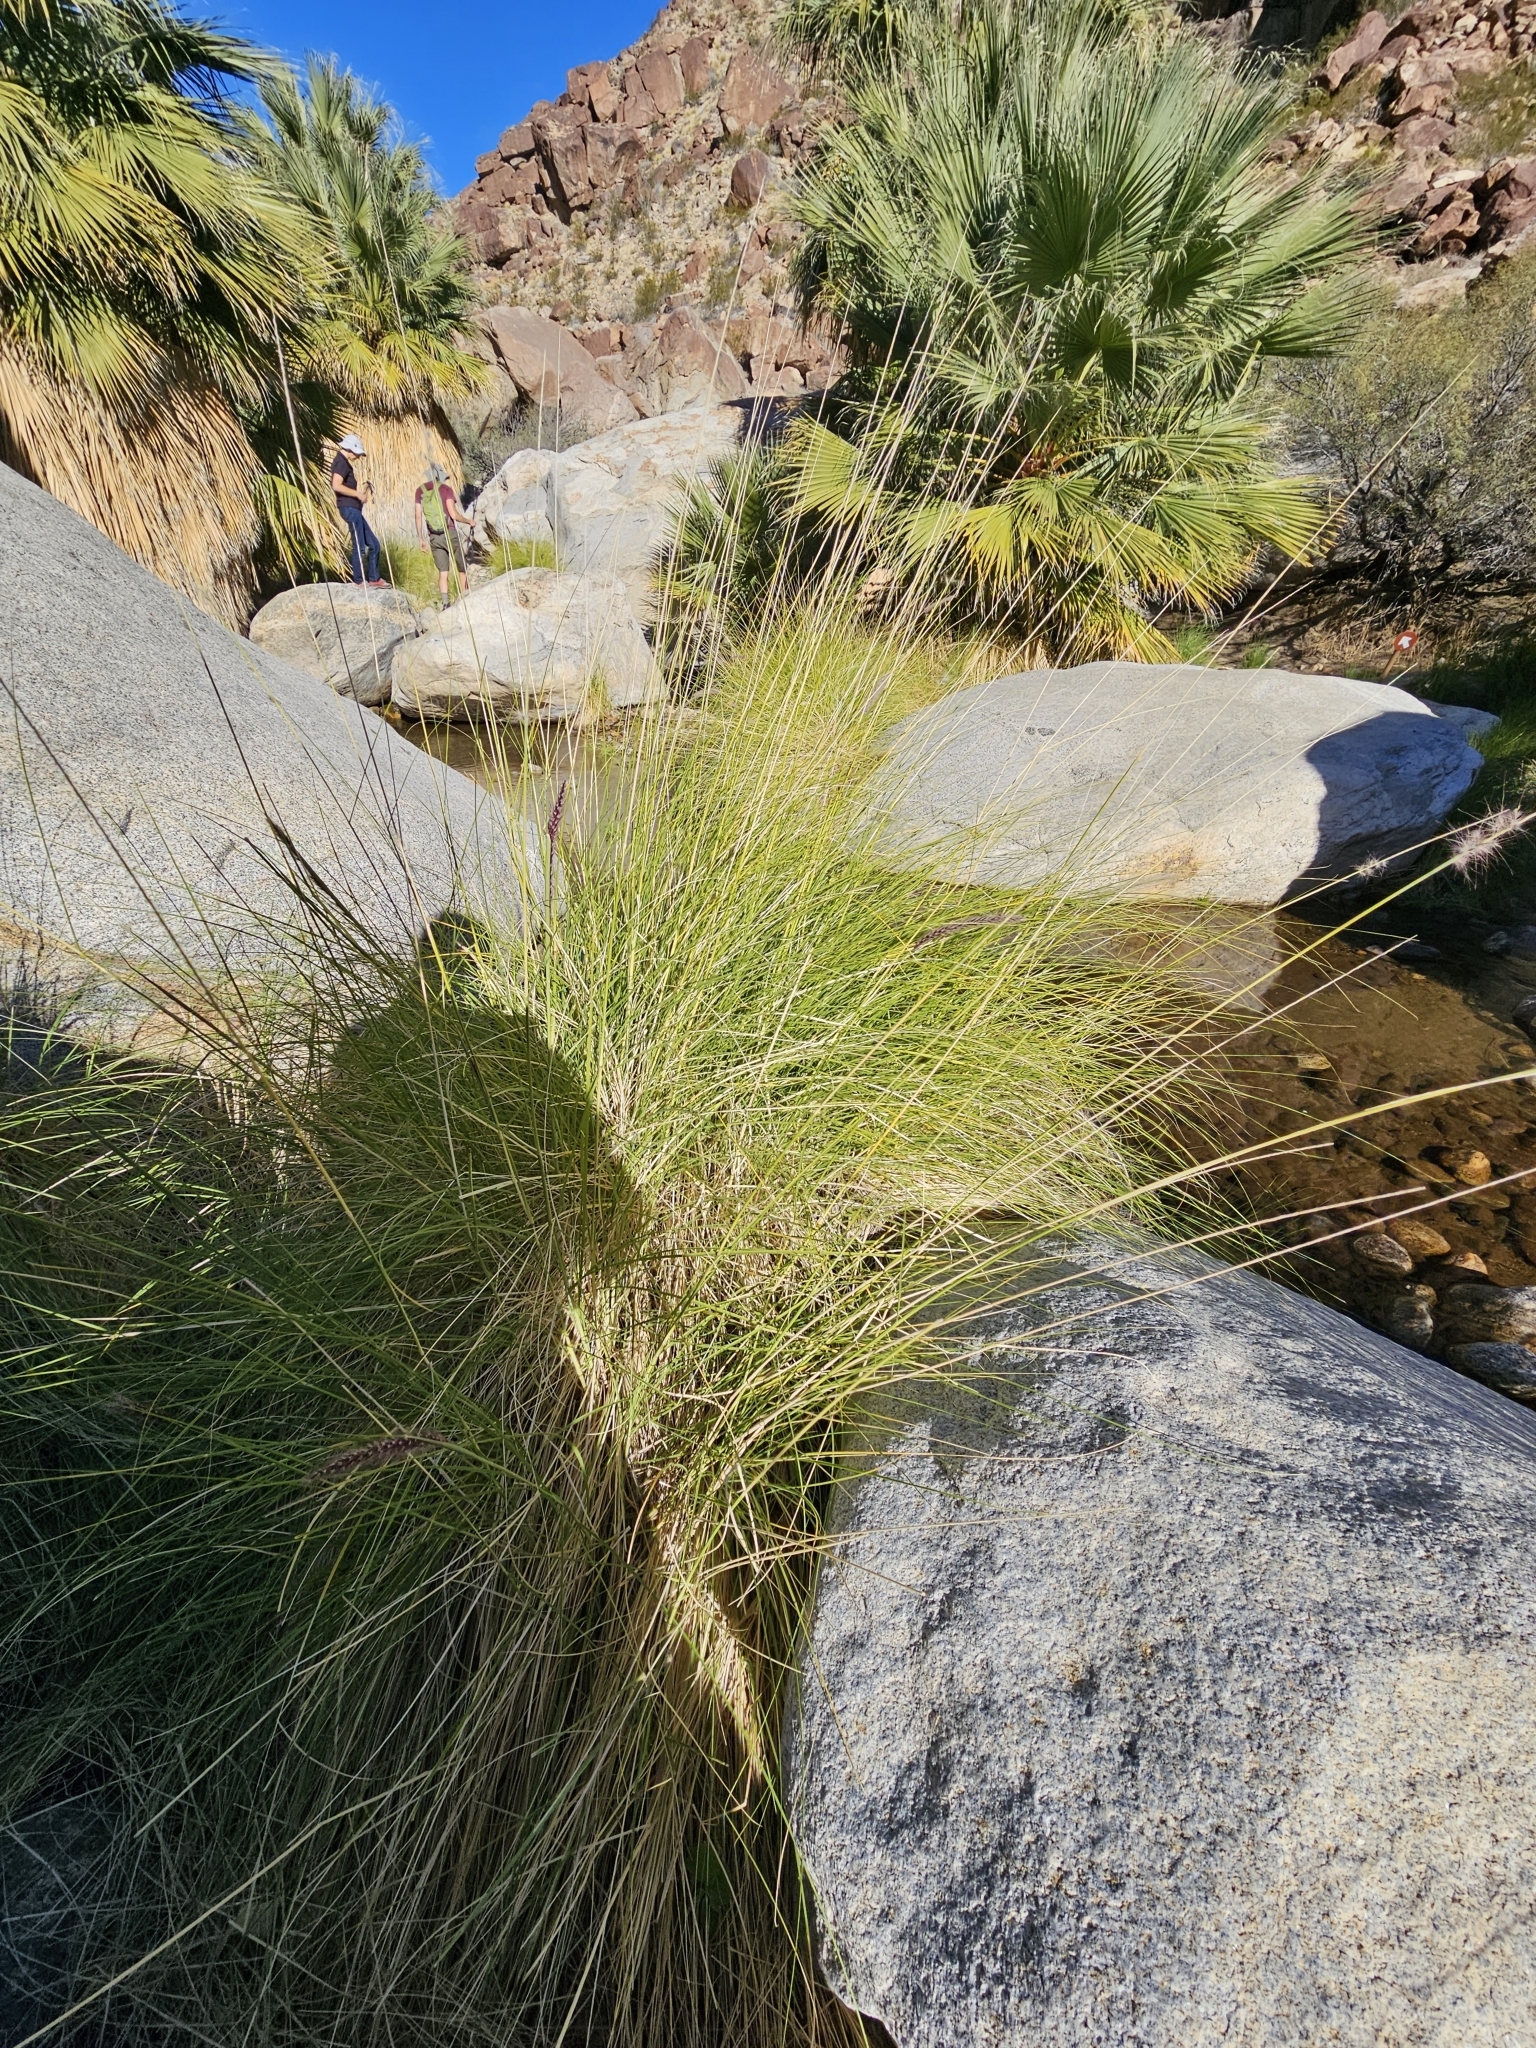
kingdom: Plantae
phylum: Tracheophyta
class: Liliopsida
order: Poales
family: Poaceae
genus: Cenchrus
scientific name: Cenchrus setaceus
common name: Crimson fountaingrass
